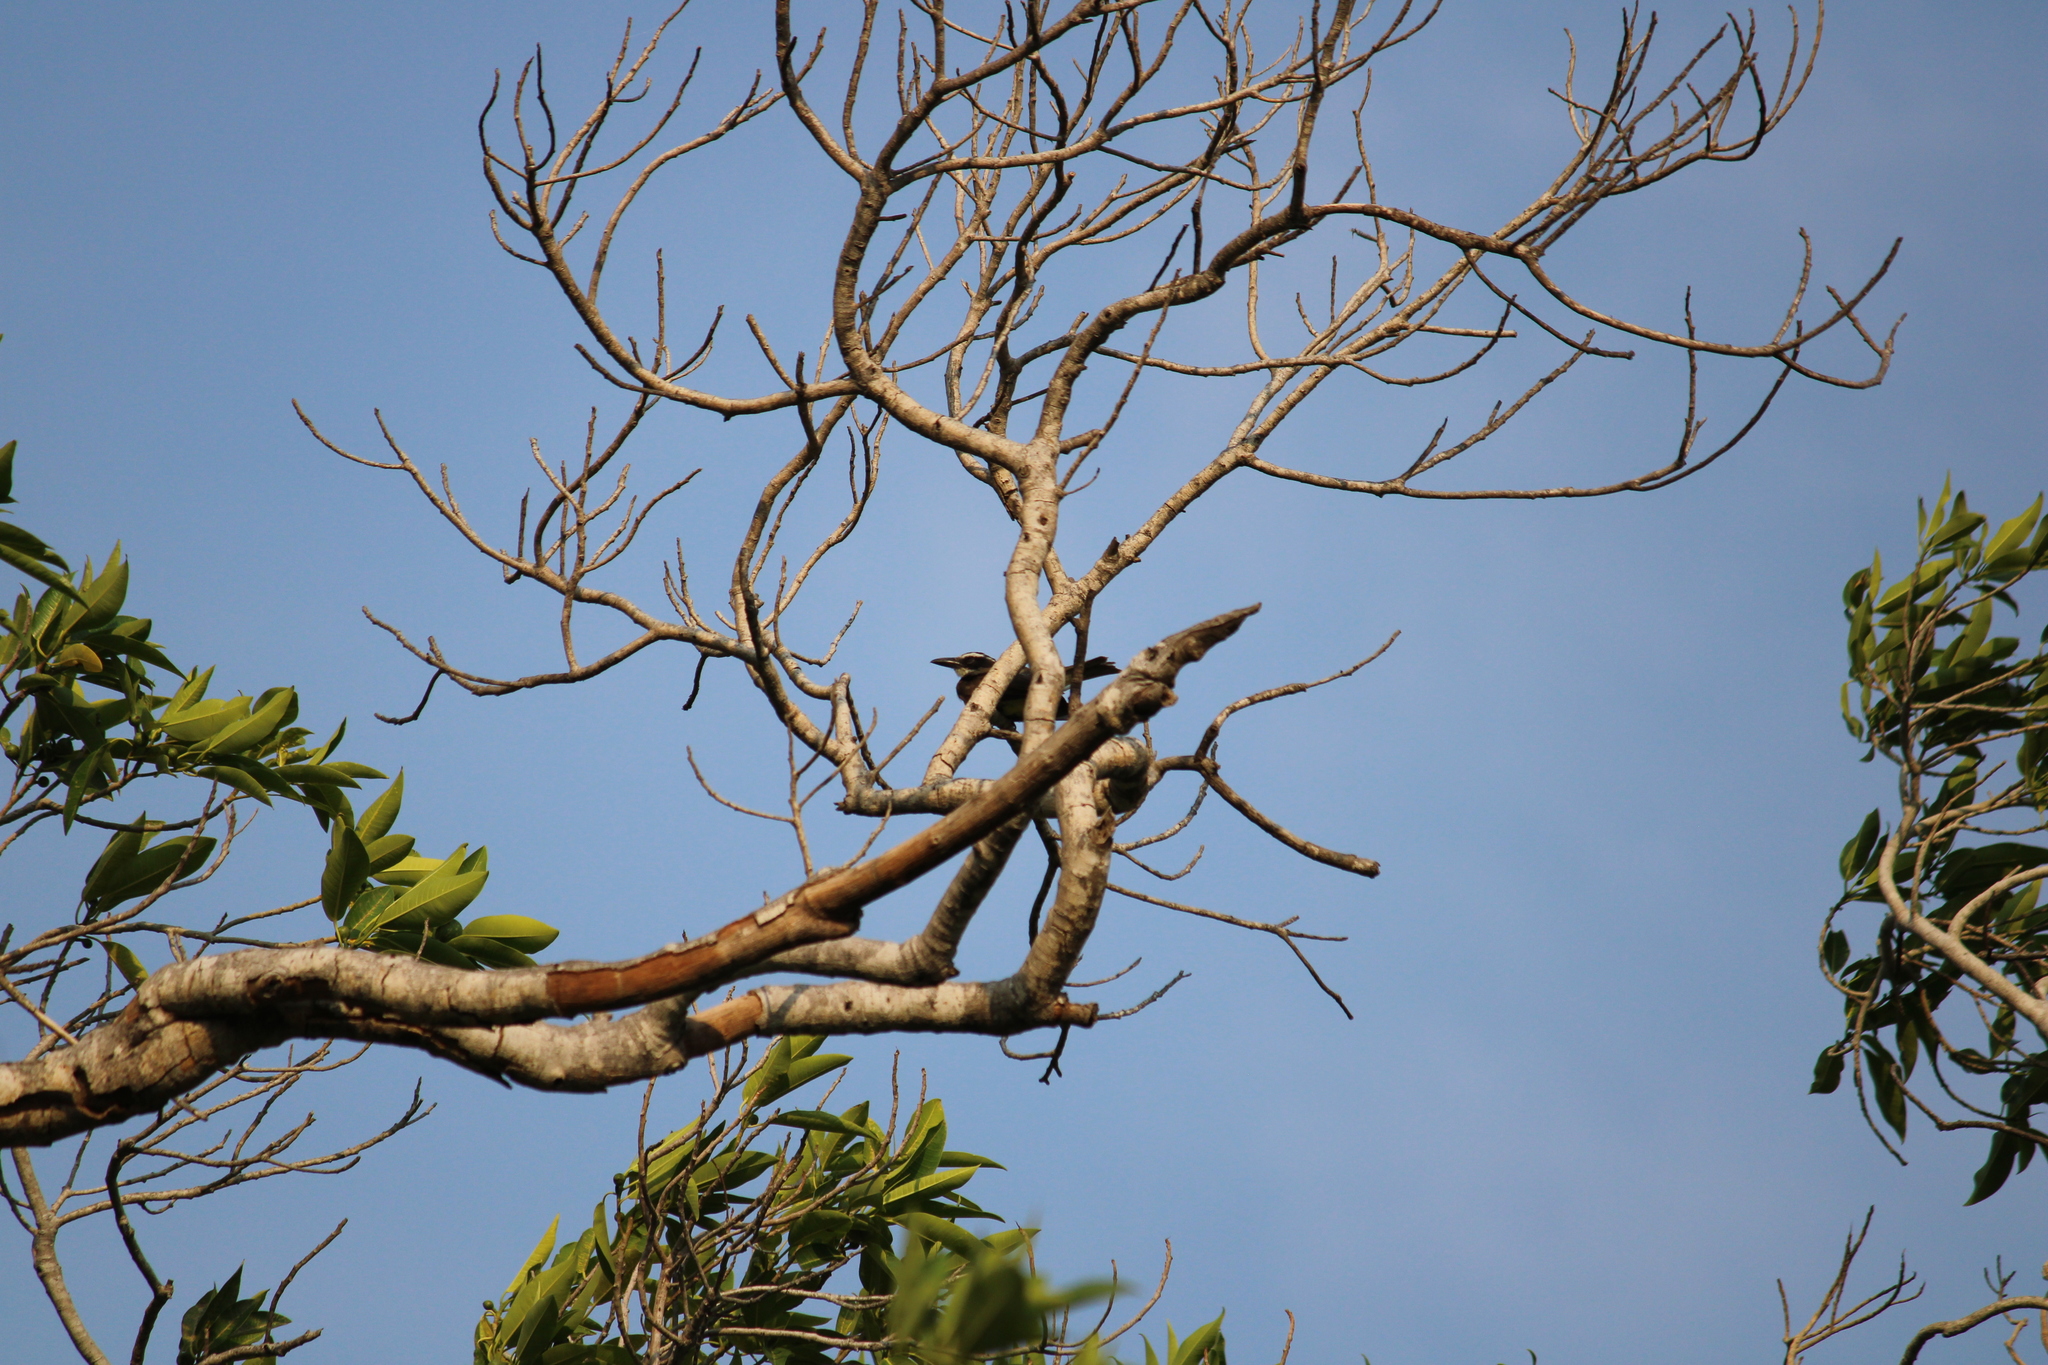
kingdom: Animalia
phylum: Chordata
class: Aves
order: Passeriformes
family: Tyrannidae
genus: Megarynchus
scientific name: Megarynchus pitangua
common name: Boat-billed flycatcher
